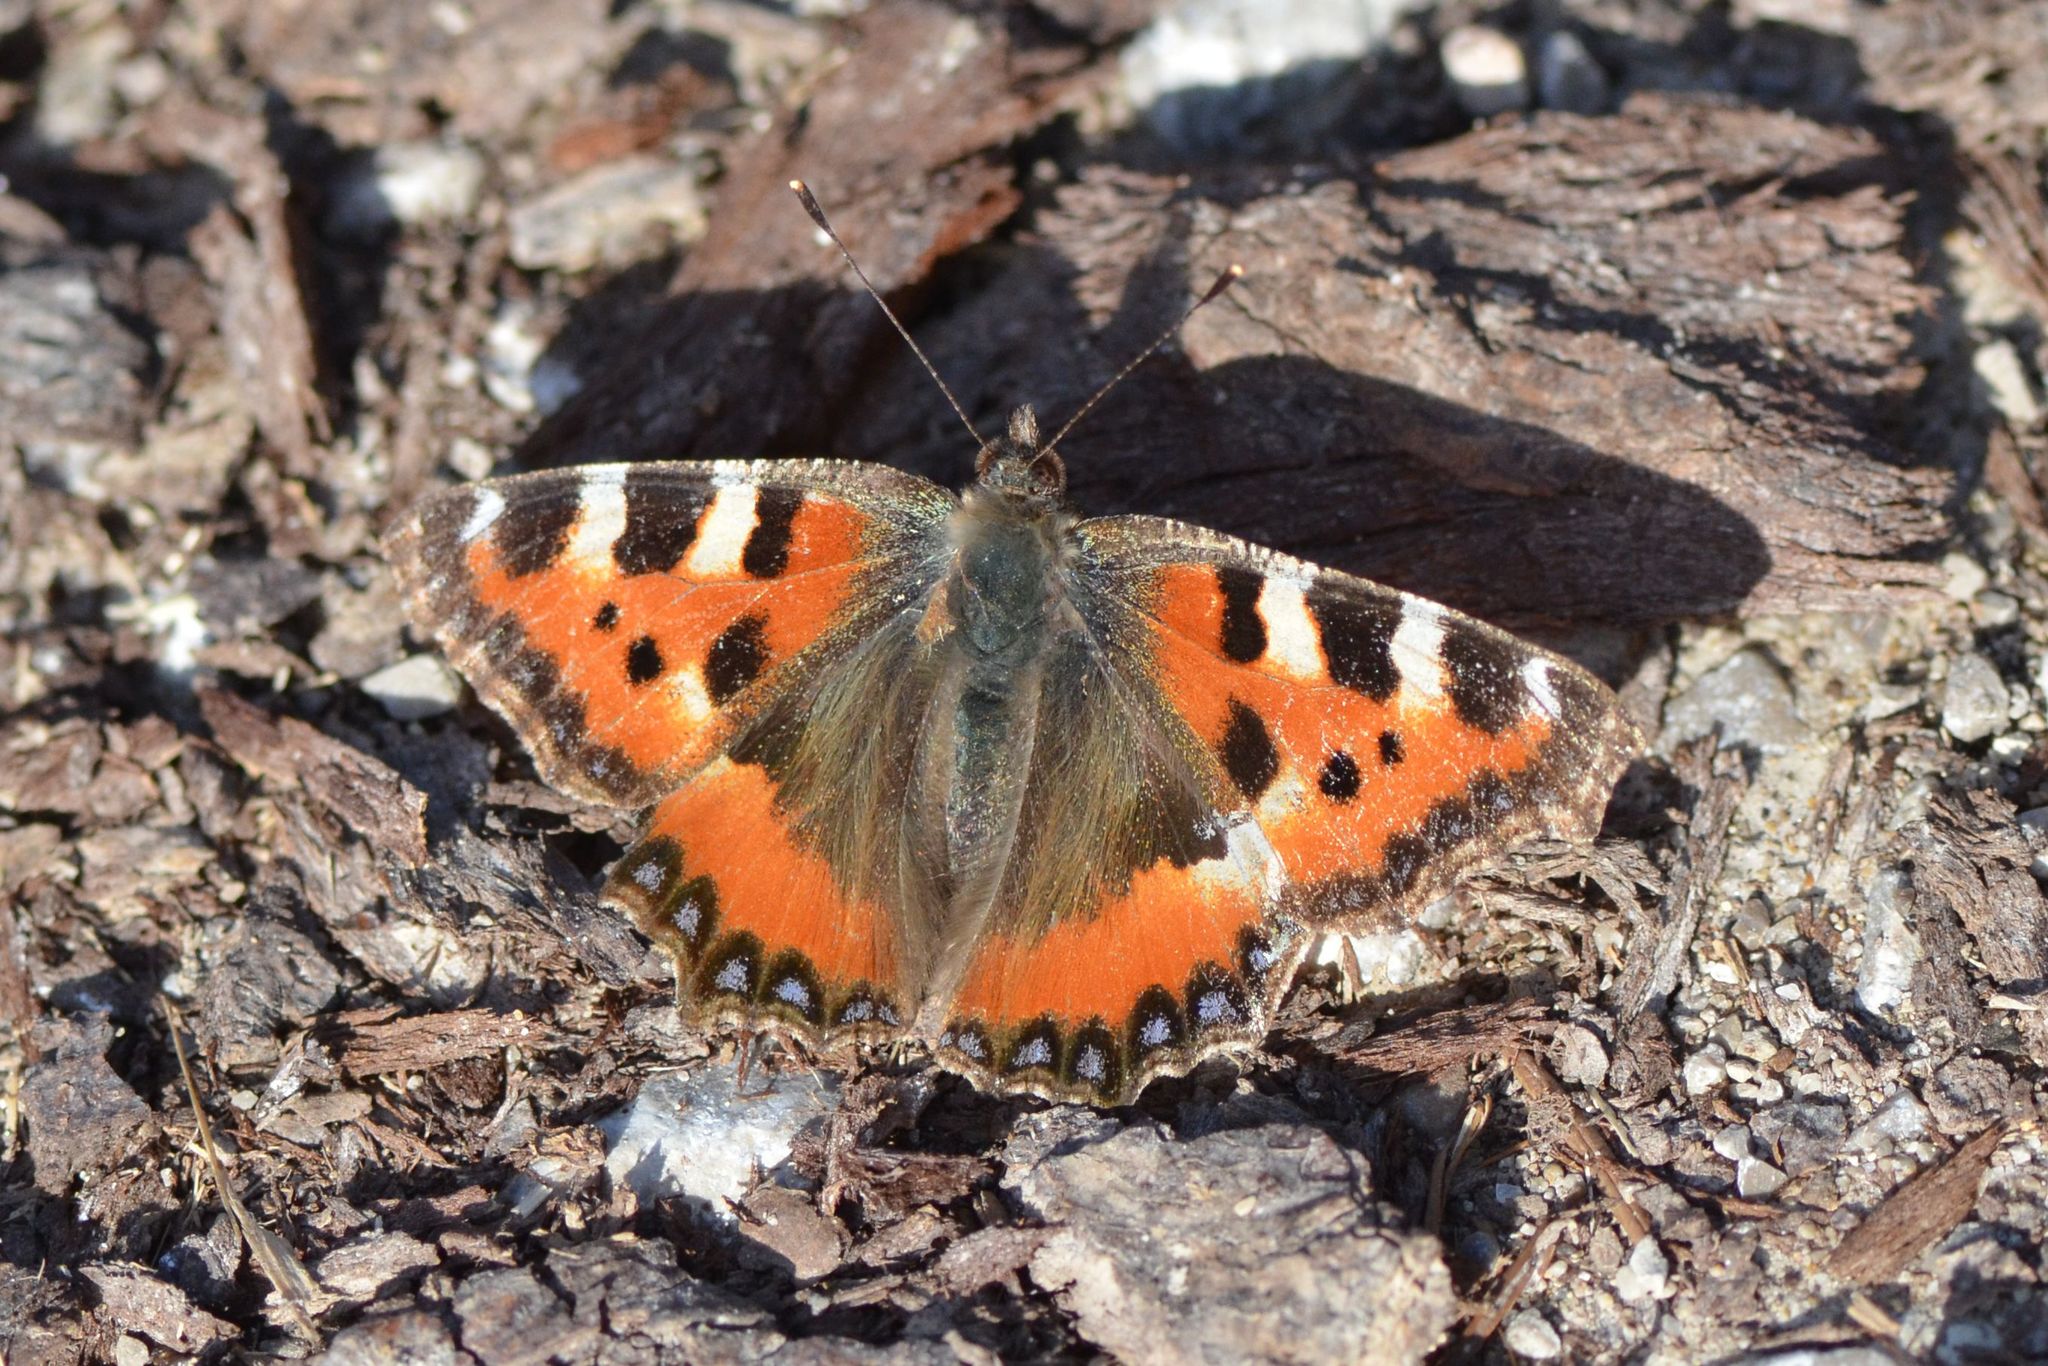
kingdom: Animalia
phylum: Arthropoda
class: Insecta
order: Lepidoptera
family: Nymphalidae
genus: Aglais
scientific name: Aglais urticae
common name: Small tortoiseshell
